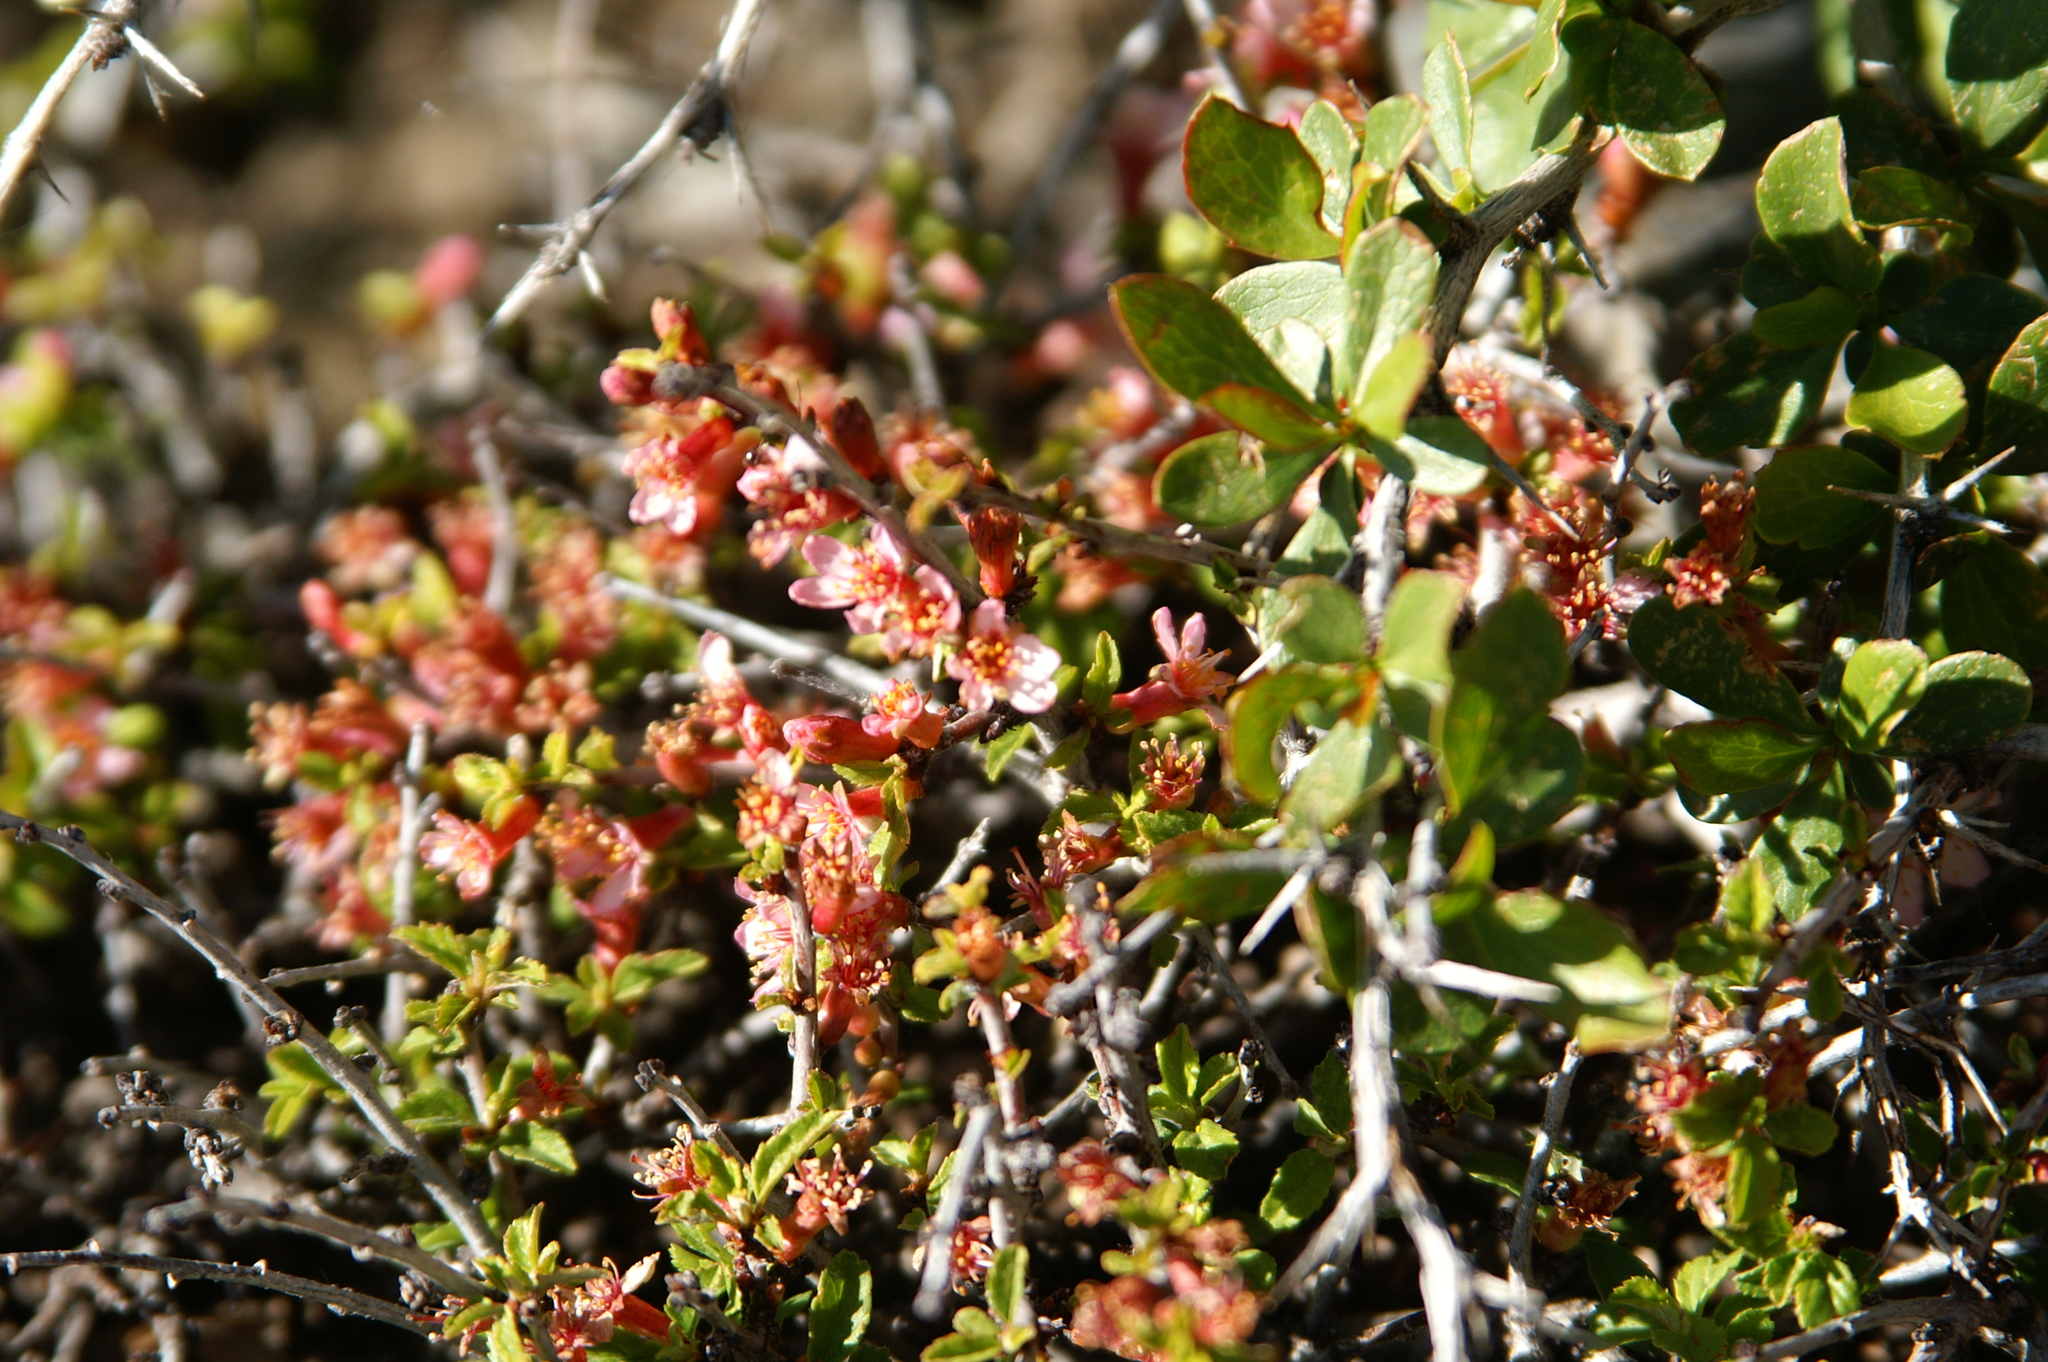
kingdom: Plantae
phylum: Tracheophyta
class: Magnoliopsida
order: Rosales
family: Rosaceae
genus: Prunus
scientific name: Prunus prostrata
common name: Mountain cherry
